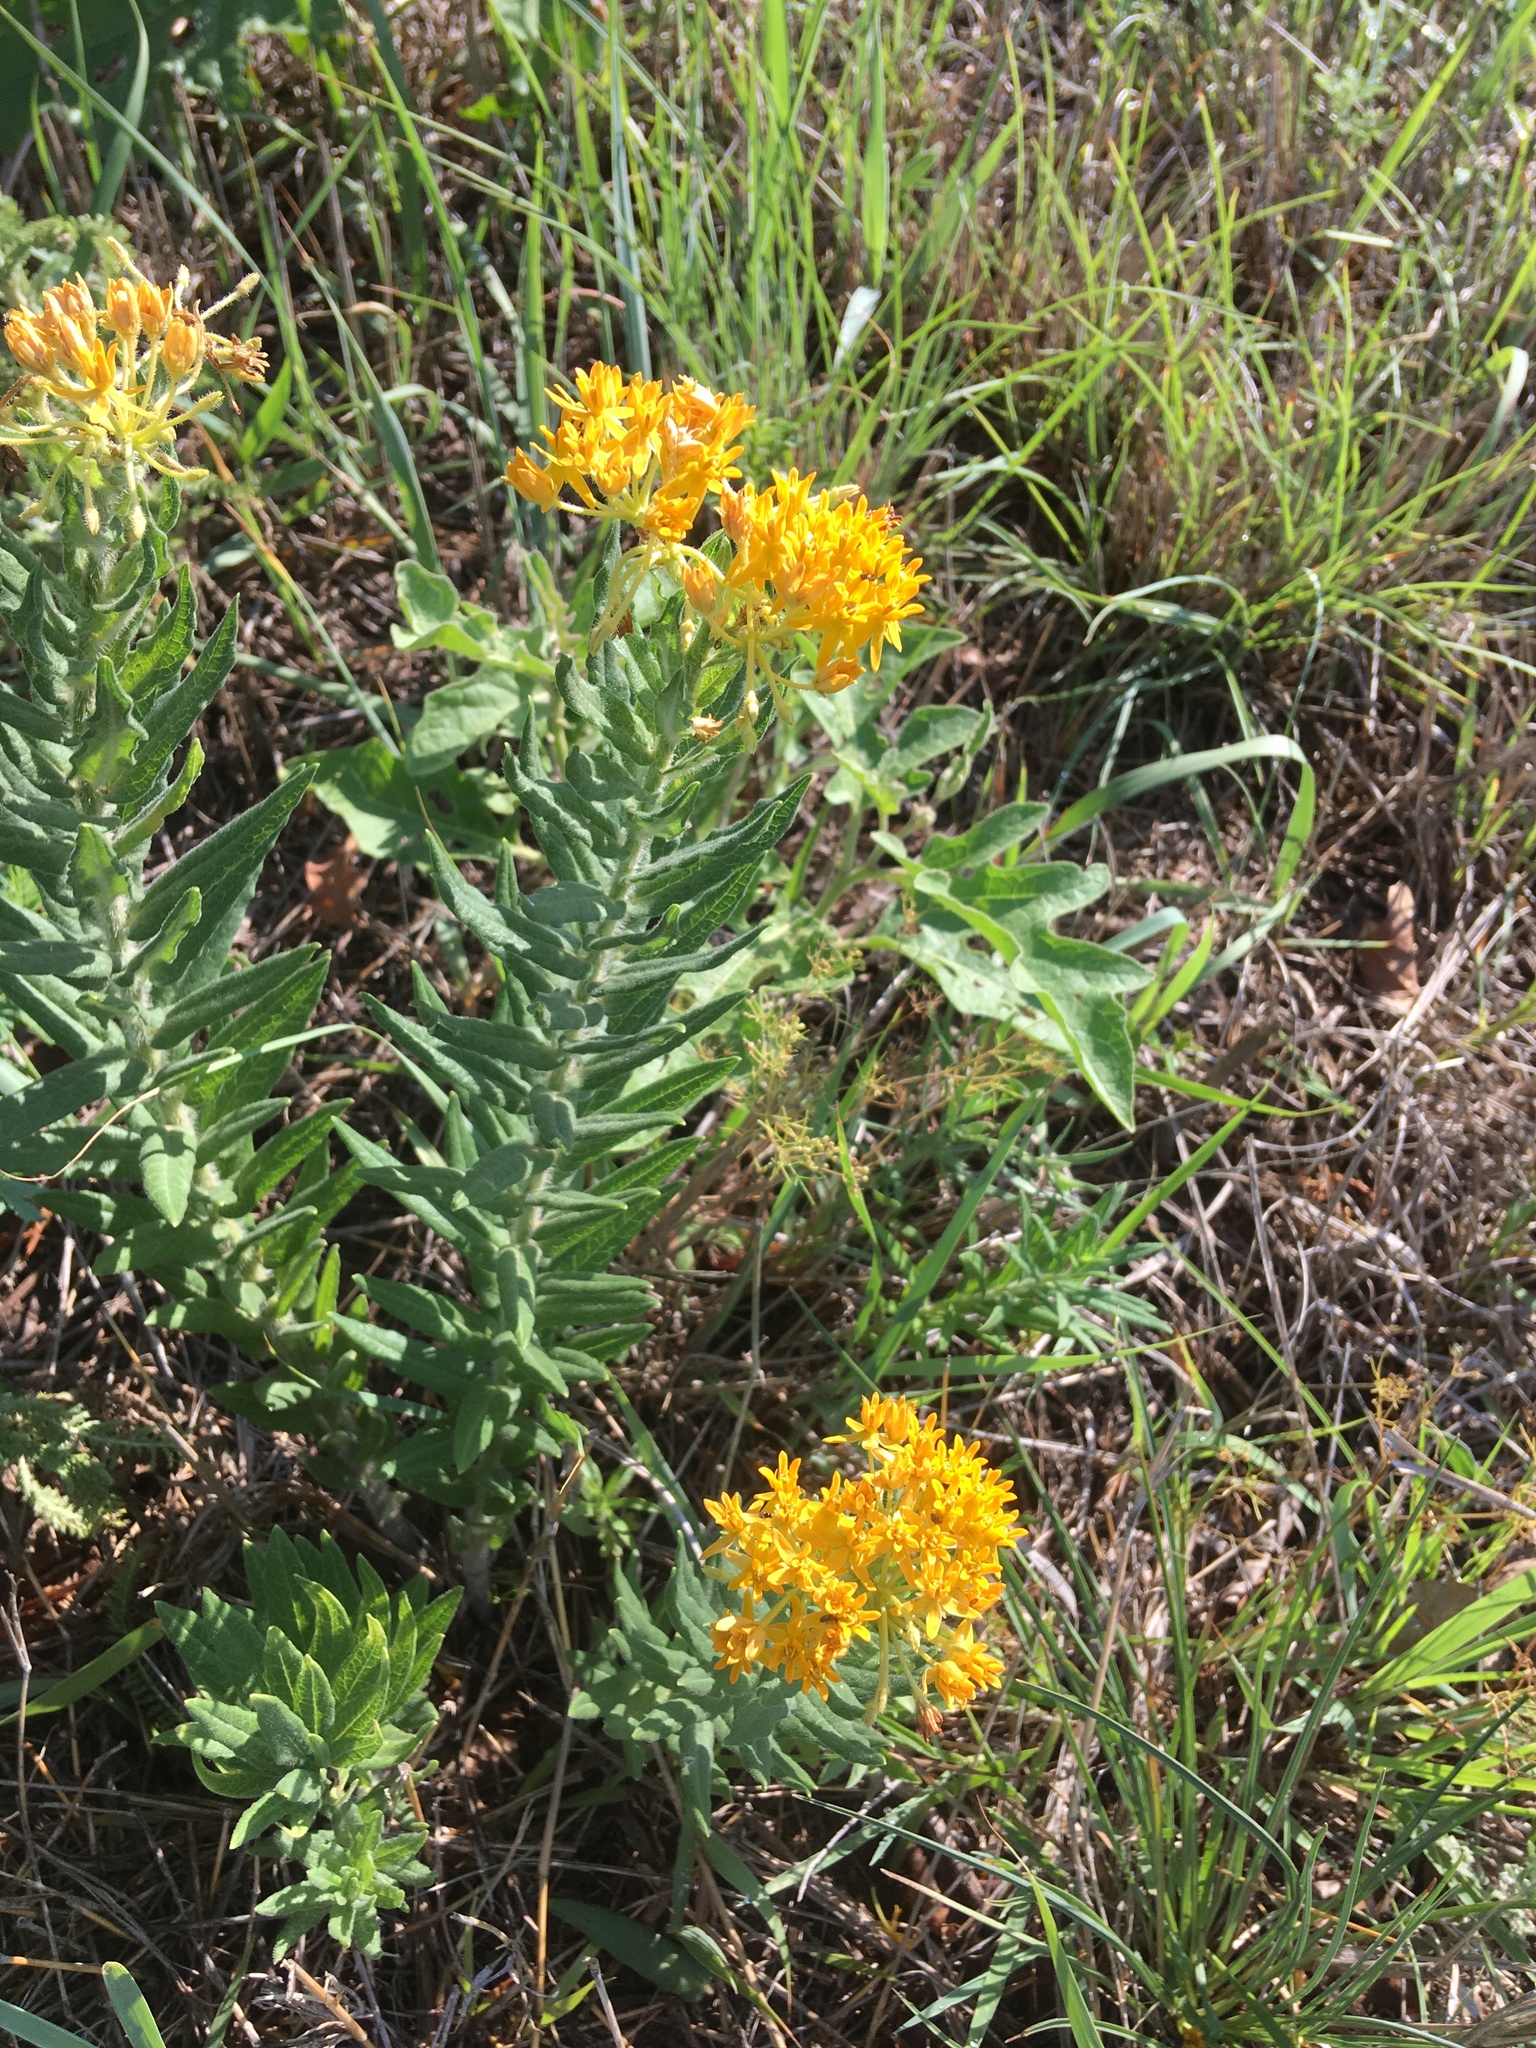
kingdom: Plantae
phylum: Tracheophyta
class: Magnoliopsida
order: Gentianales
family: Apocynaceae
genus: Asclepias
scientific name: Asclepias tuberosa
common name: Butterfly milkweed
